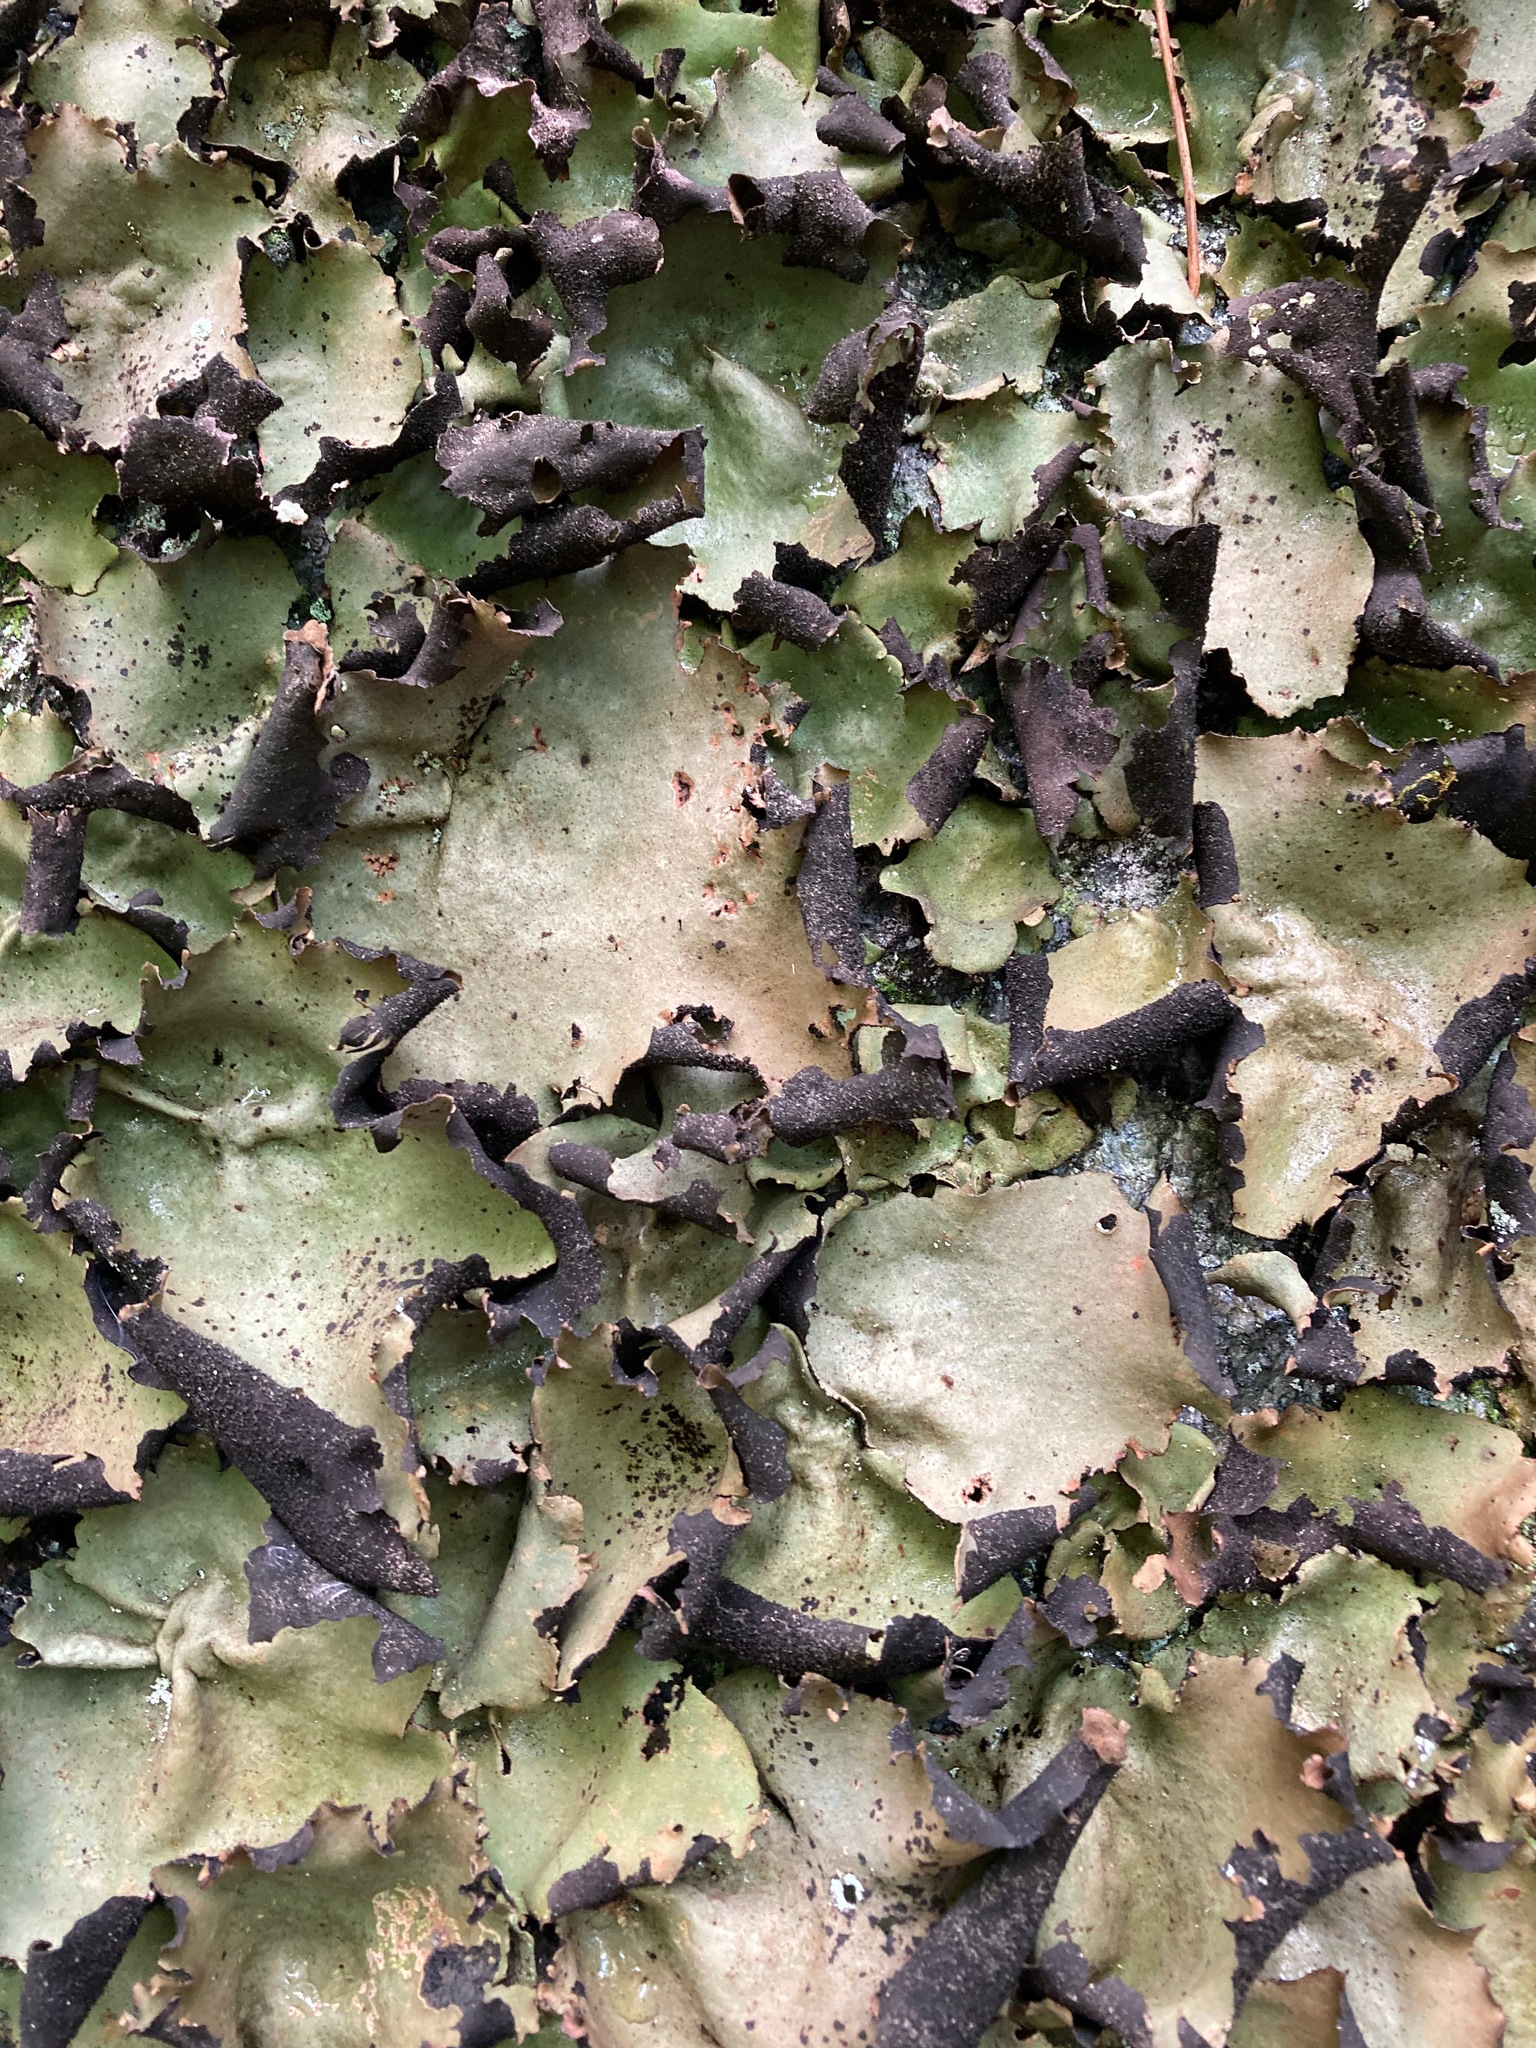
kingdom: Fungi
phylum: Ascomycota
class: Lecanoromycetes
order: Umbilicariales
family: Umbilicariaceae
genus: Umbilicaria
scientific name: Umbilicaria mammulata
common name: Smooth rock tripe
